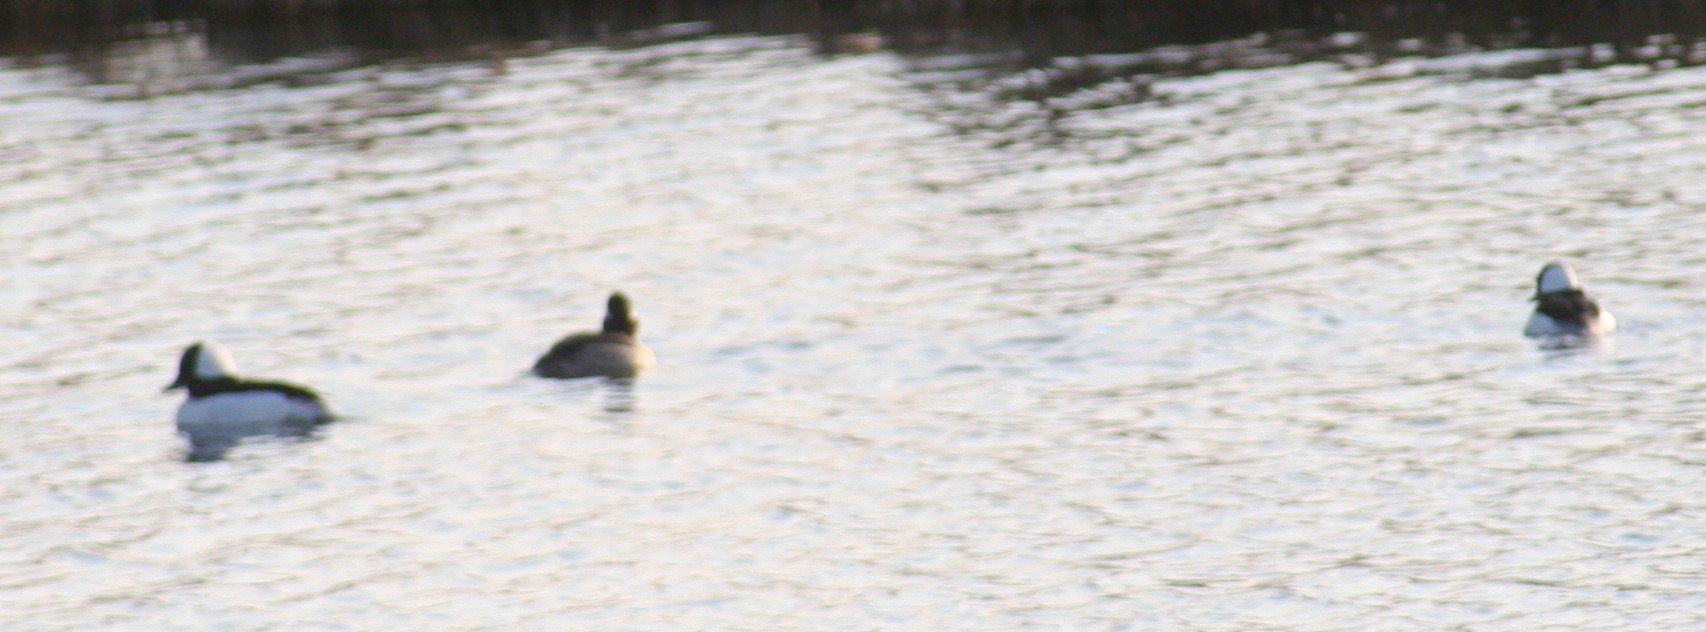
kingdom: Animalia
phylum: Chordata
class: Aves
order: Anseriformes
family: Anatidae
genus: Bucephala
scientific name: Bucephala albeola
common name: Bufflehead
